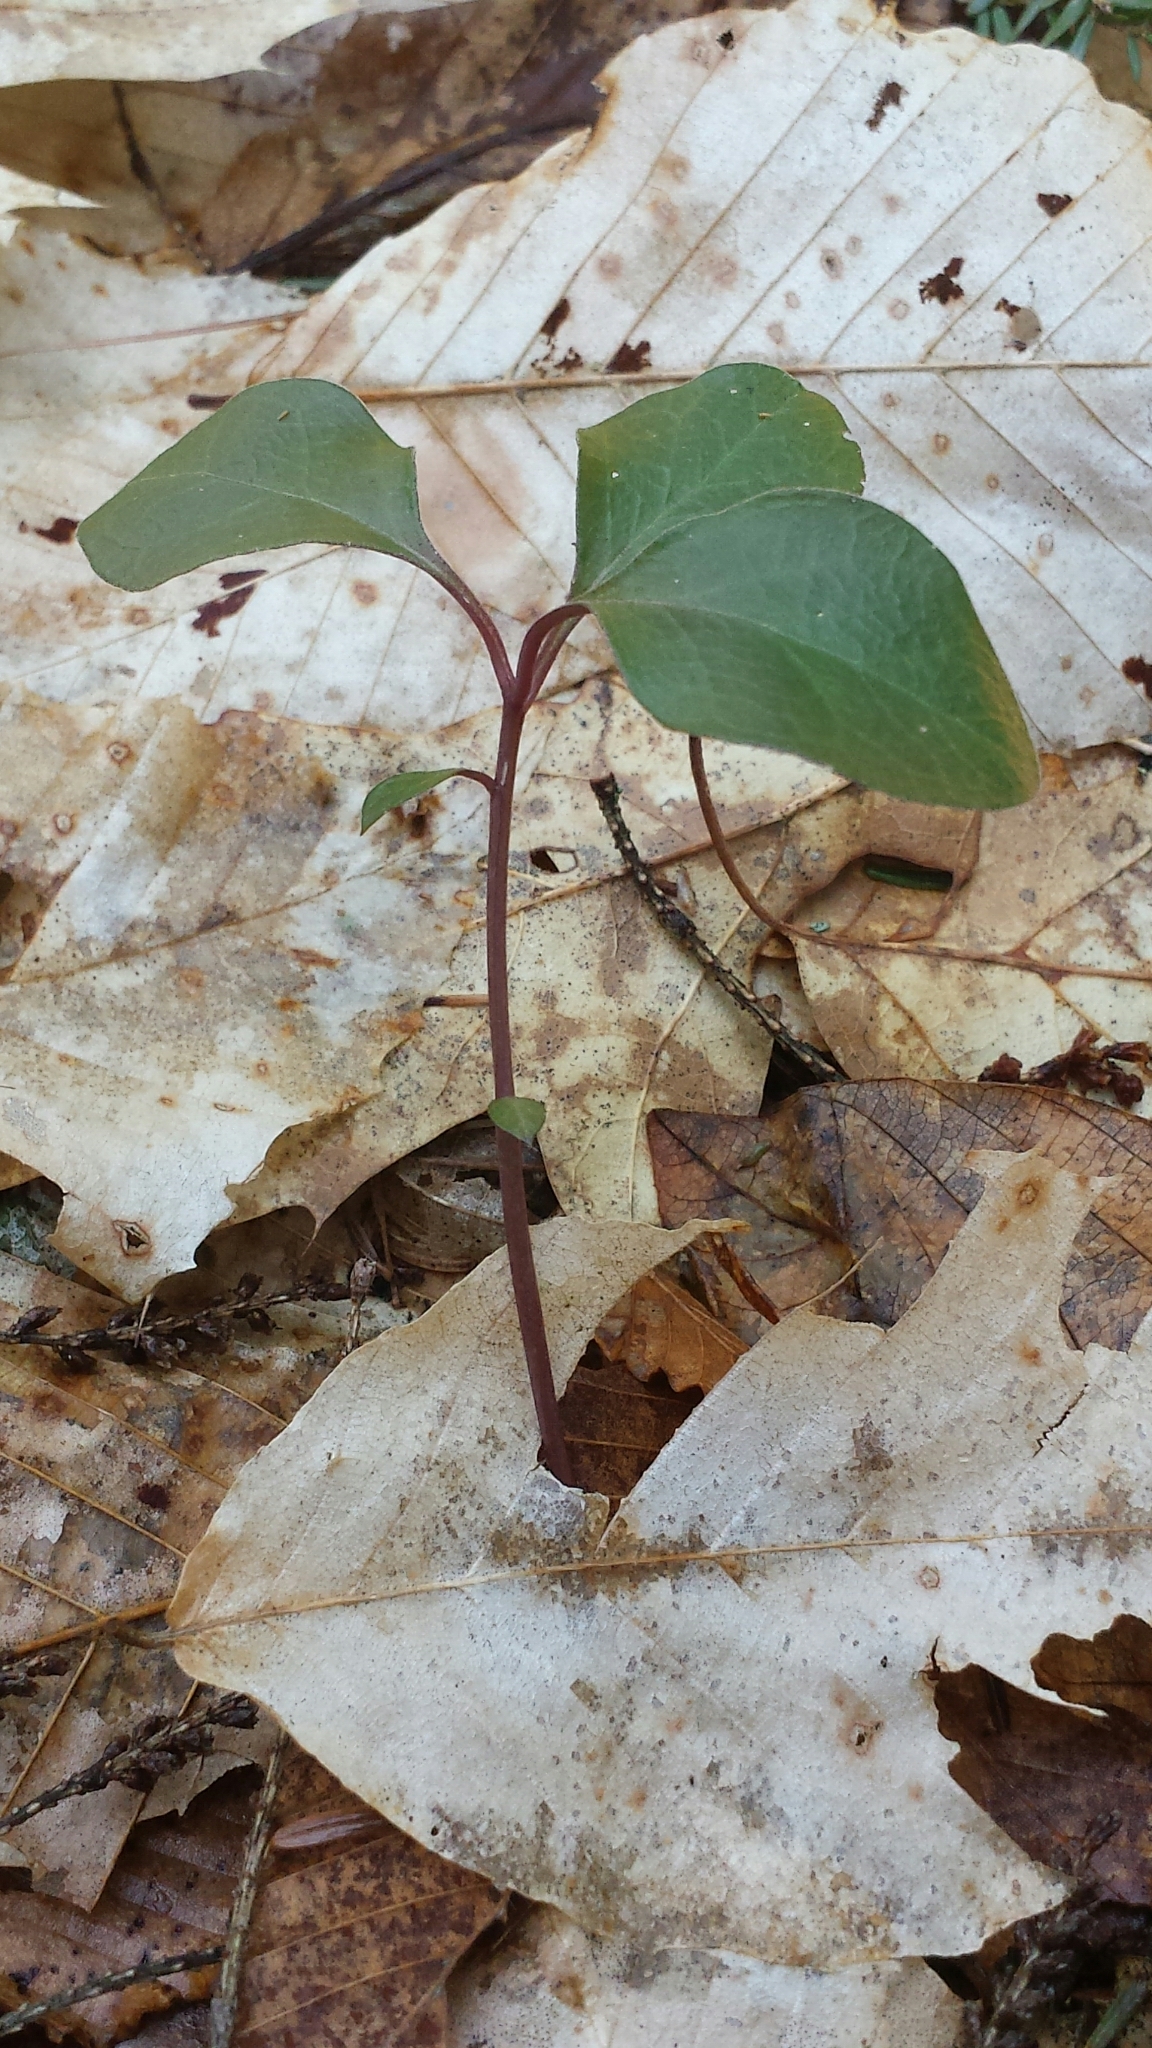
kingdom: Plantae
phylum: Tracheophyta
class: Magnoliopsida
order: Fabales
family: Polygalaceae
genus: Polygaloides
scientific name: Polygaloides paucifolia
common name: Bird-on-the-wing
